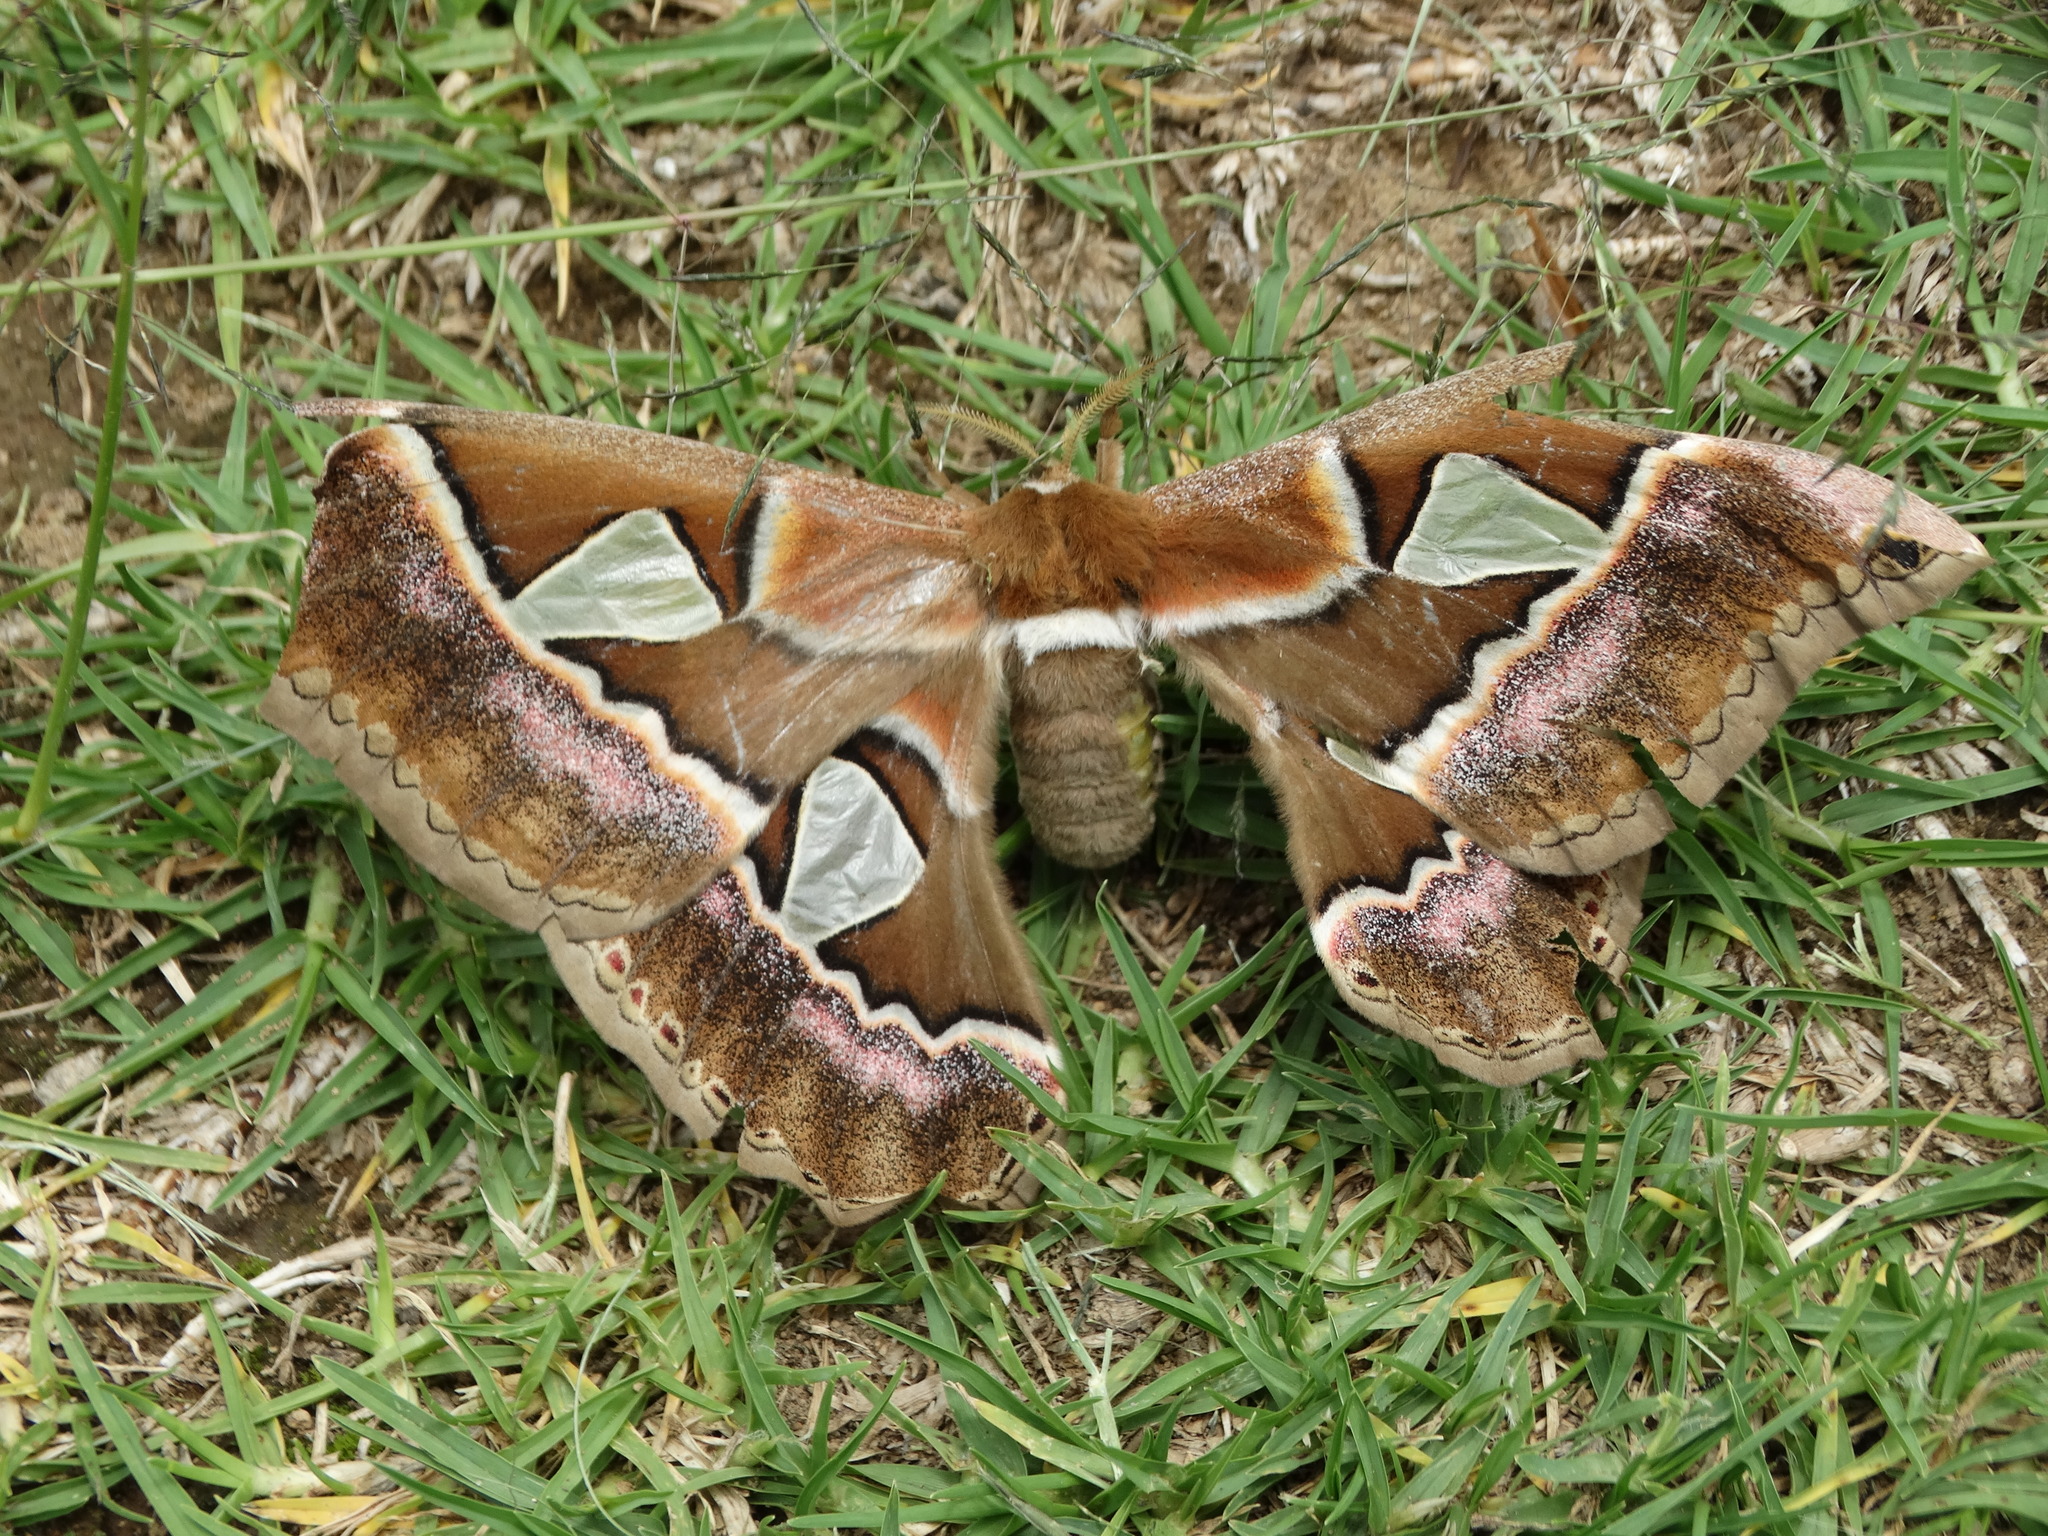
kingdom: Animalia
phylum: Arthropoda
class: Insecta
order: Lepidoptera
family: Saturniidae
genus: Rothschildia
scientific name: Rothschildia orizaba
